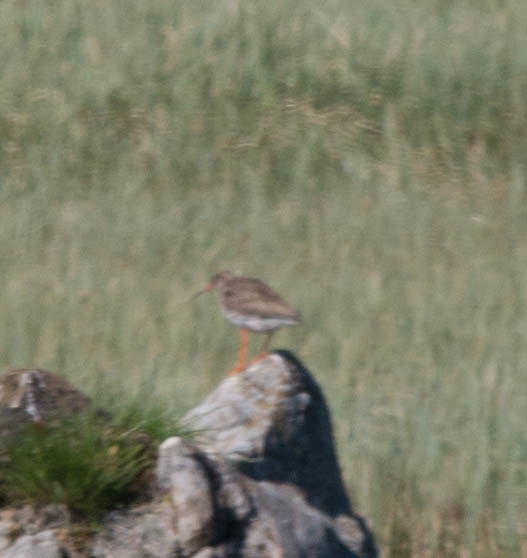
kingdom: Animalia
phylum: Chordata
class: Aves
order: Charadriiformes
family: Scolopacidae
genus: Tringa
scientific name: Tringa totanus
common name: Common redshank
